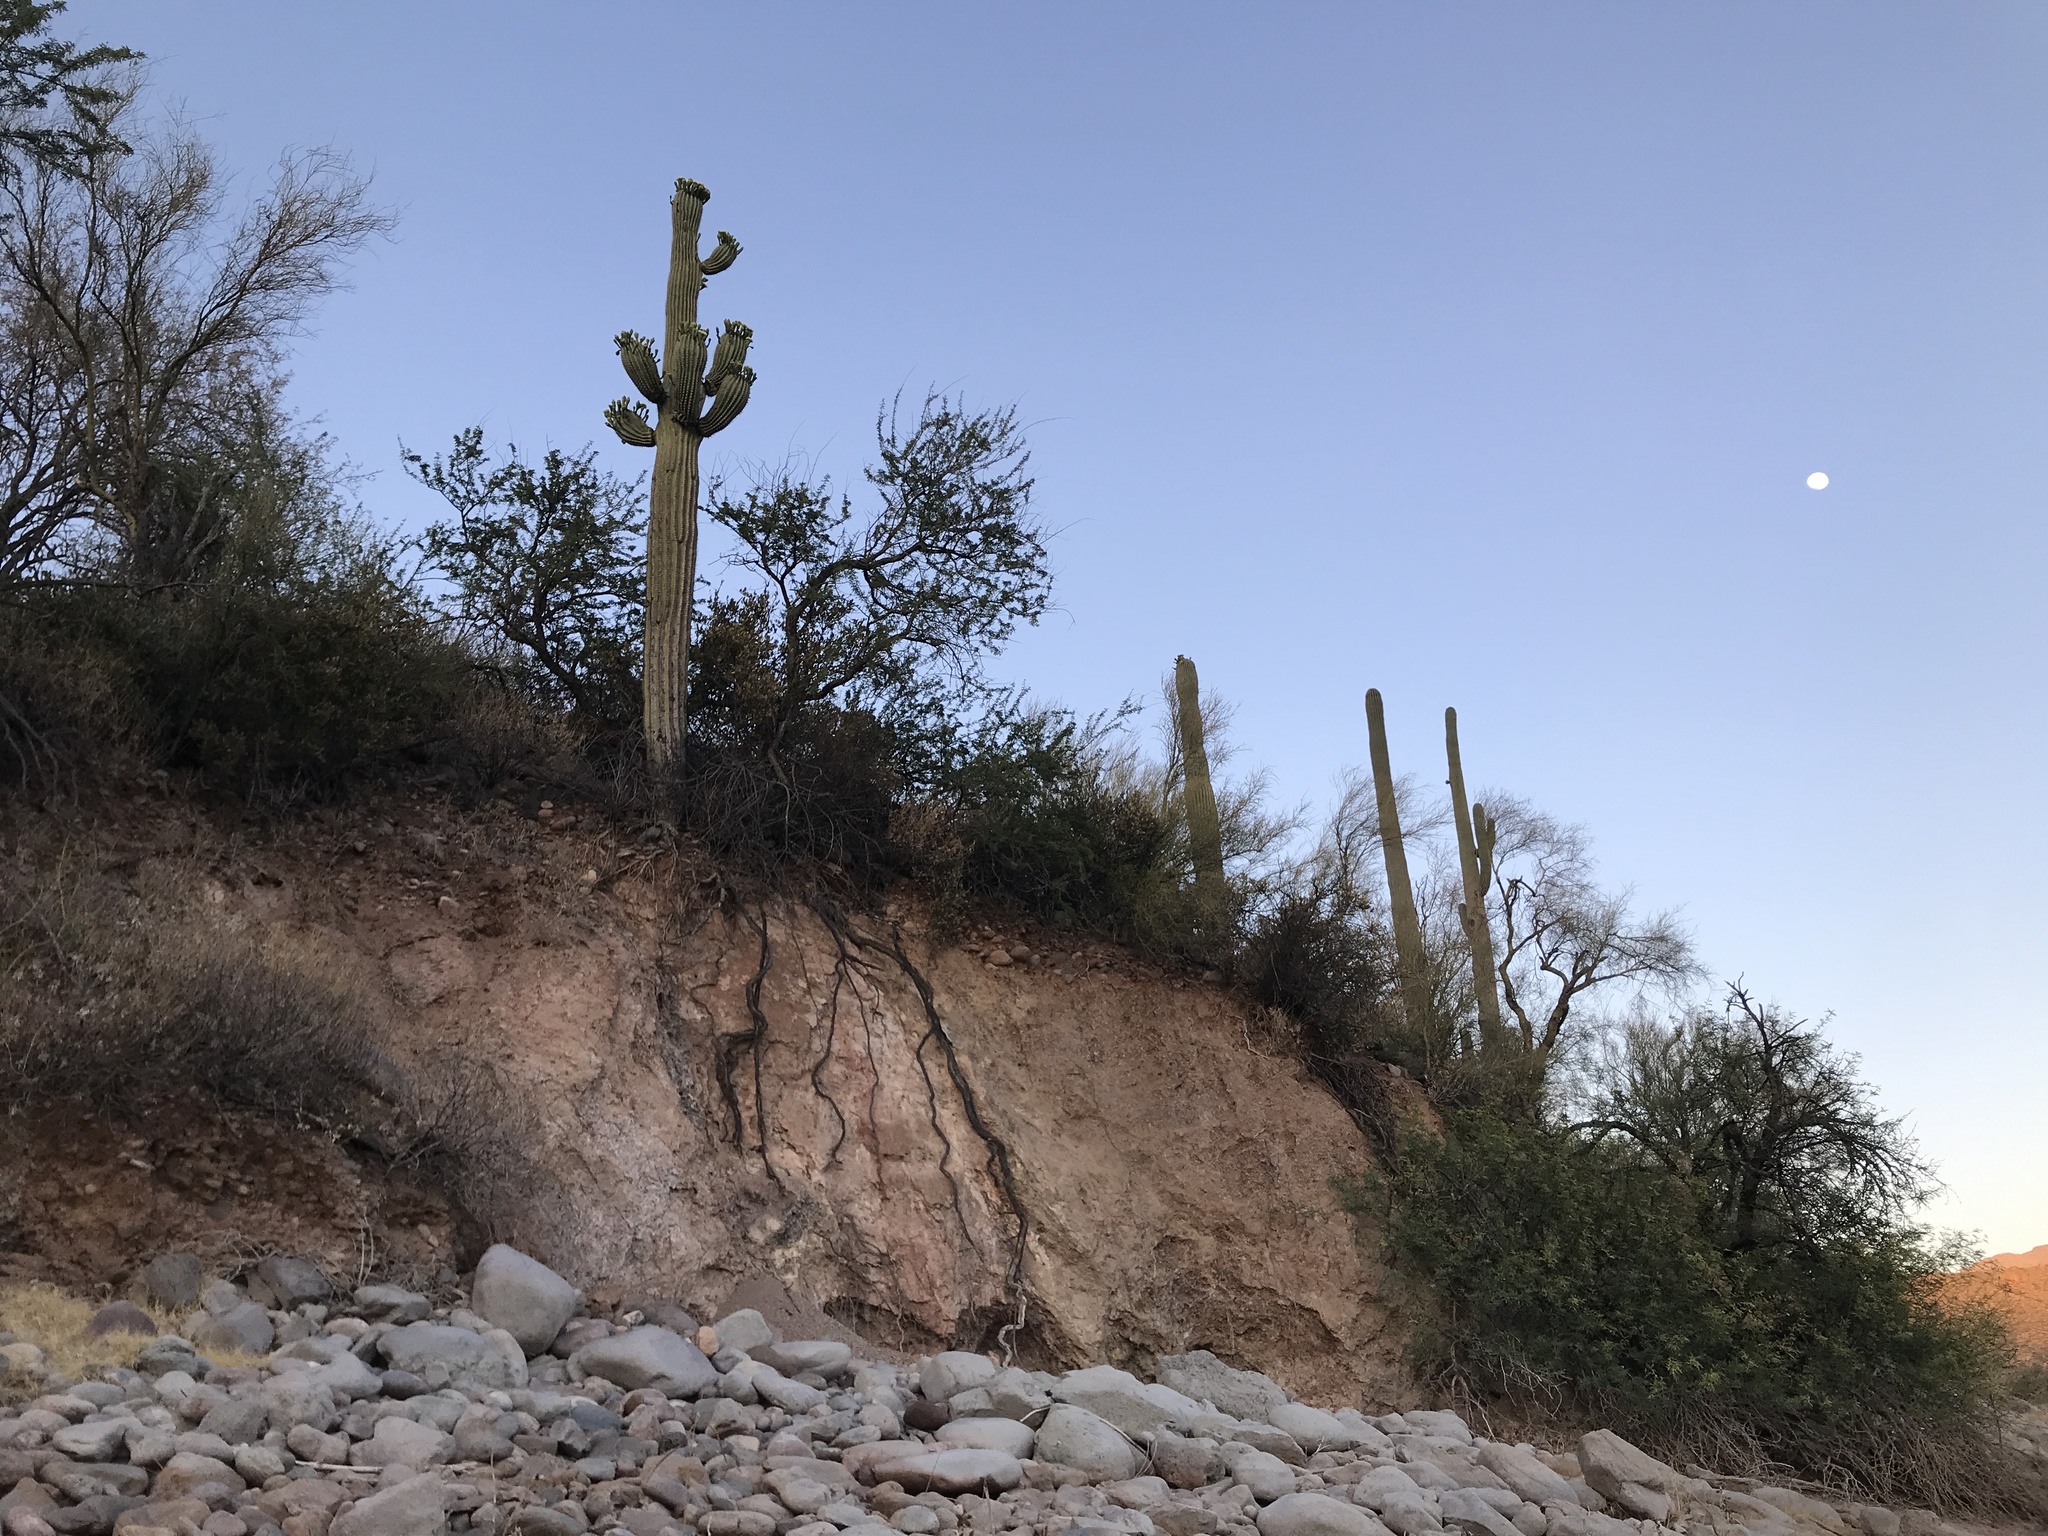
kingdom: Plantae
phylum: Tracheophyta
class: Magnoliopsida
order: Caryophyllales
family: Cactaceae
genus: Carnegiea
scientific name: Carnegiea gigantea
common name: Saguaro
